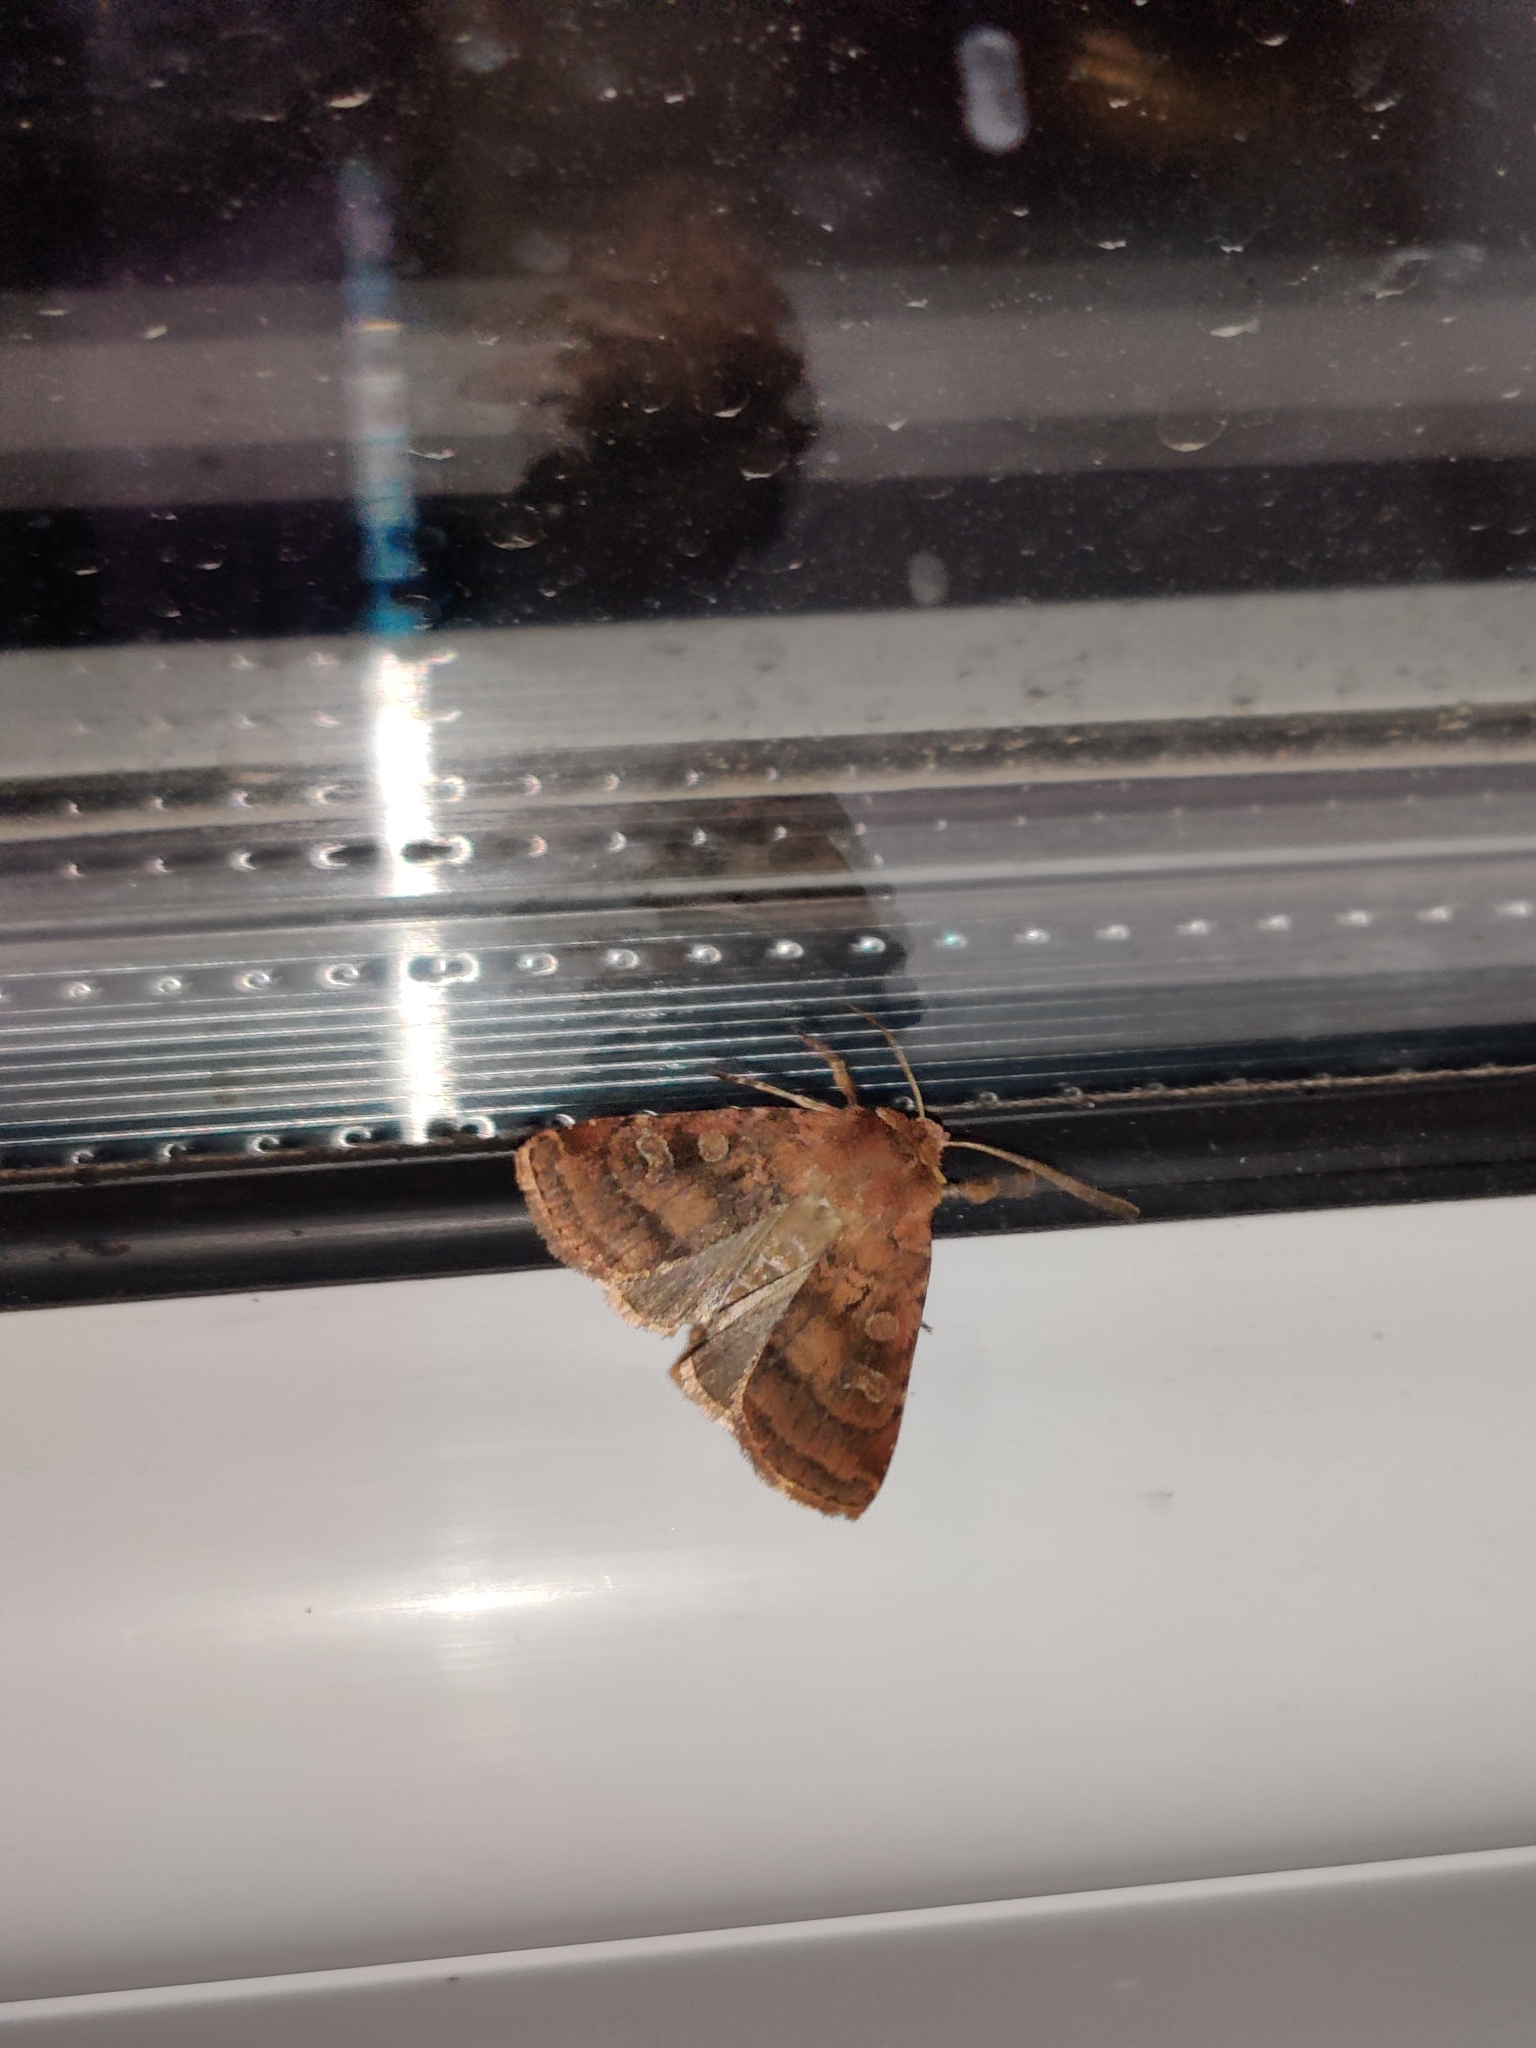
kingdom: Animalia
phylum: Arthropoda
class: Insecta
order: Lepidoptera
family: Noctuidae
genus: Diarsia
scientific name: Diarsia rubi
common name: Small square-spot
